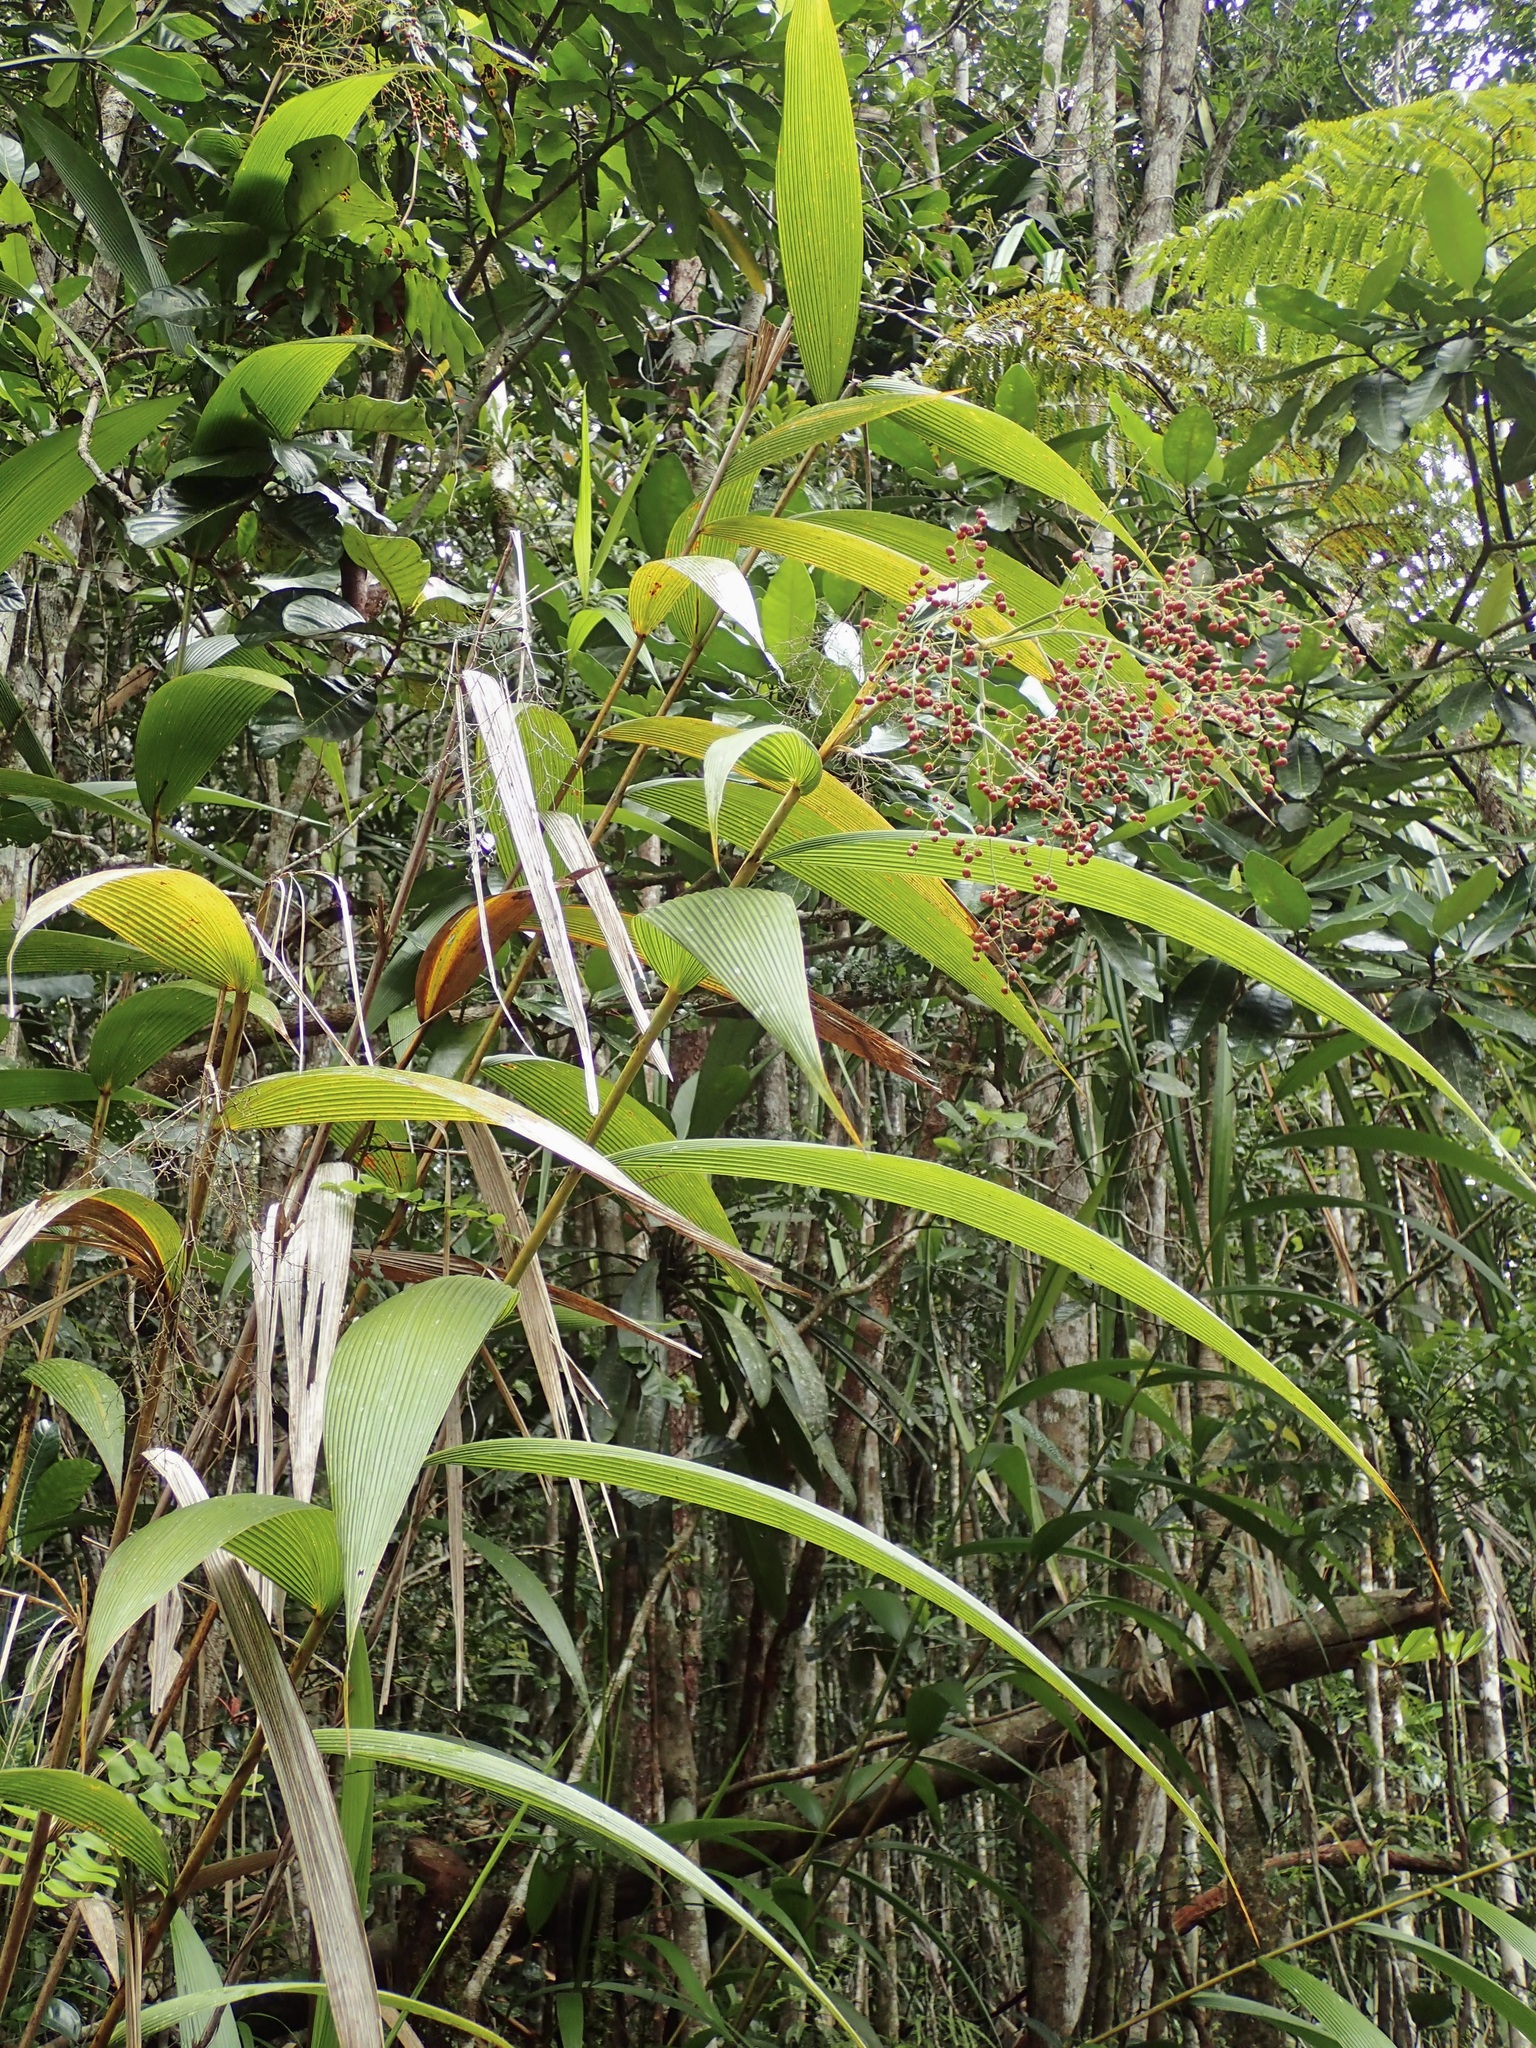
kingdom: Plantae
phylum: Tracheophyta
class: Liliopsida
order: Poales
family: Joinvilleaceae
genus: Joinvillea
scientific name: Joinvillea plicata
